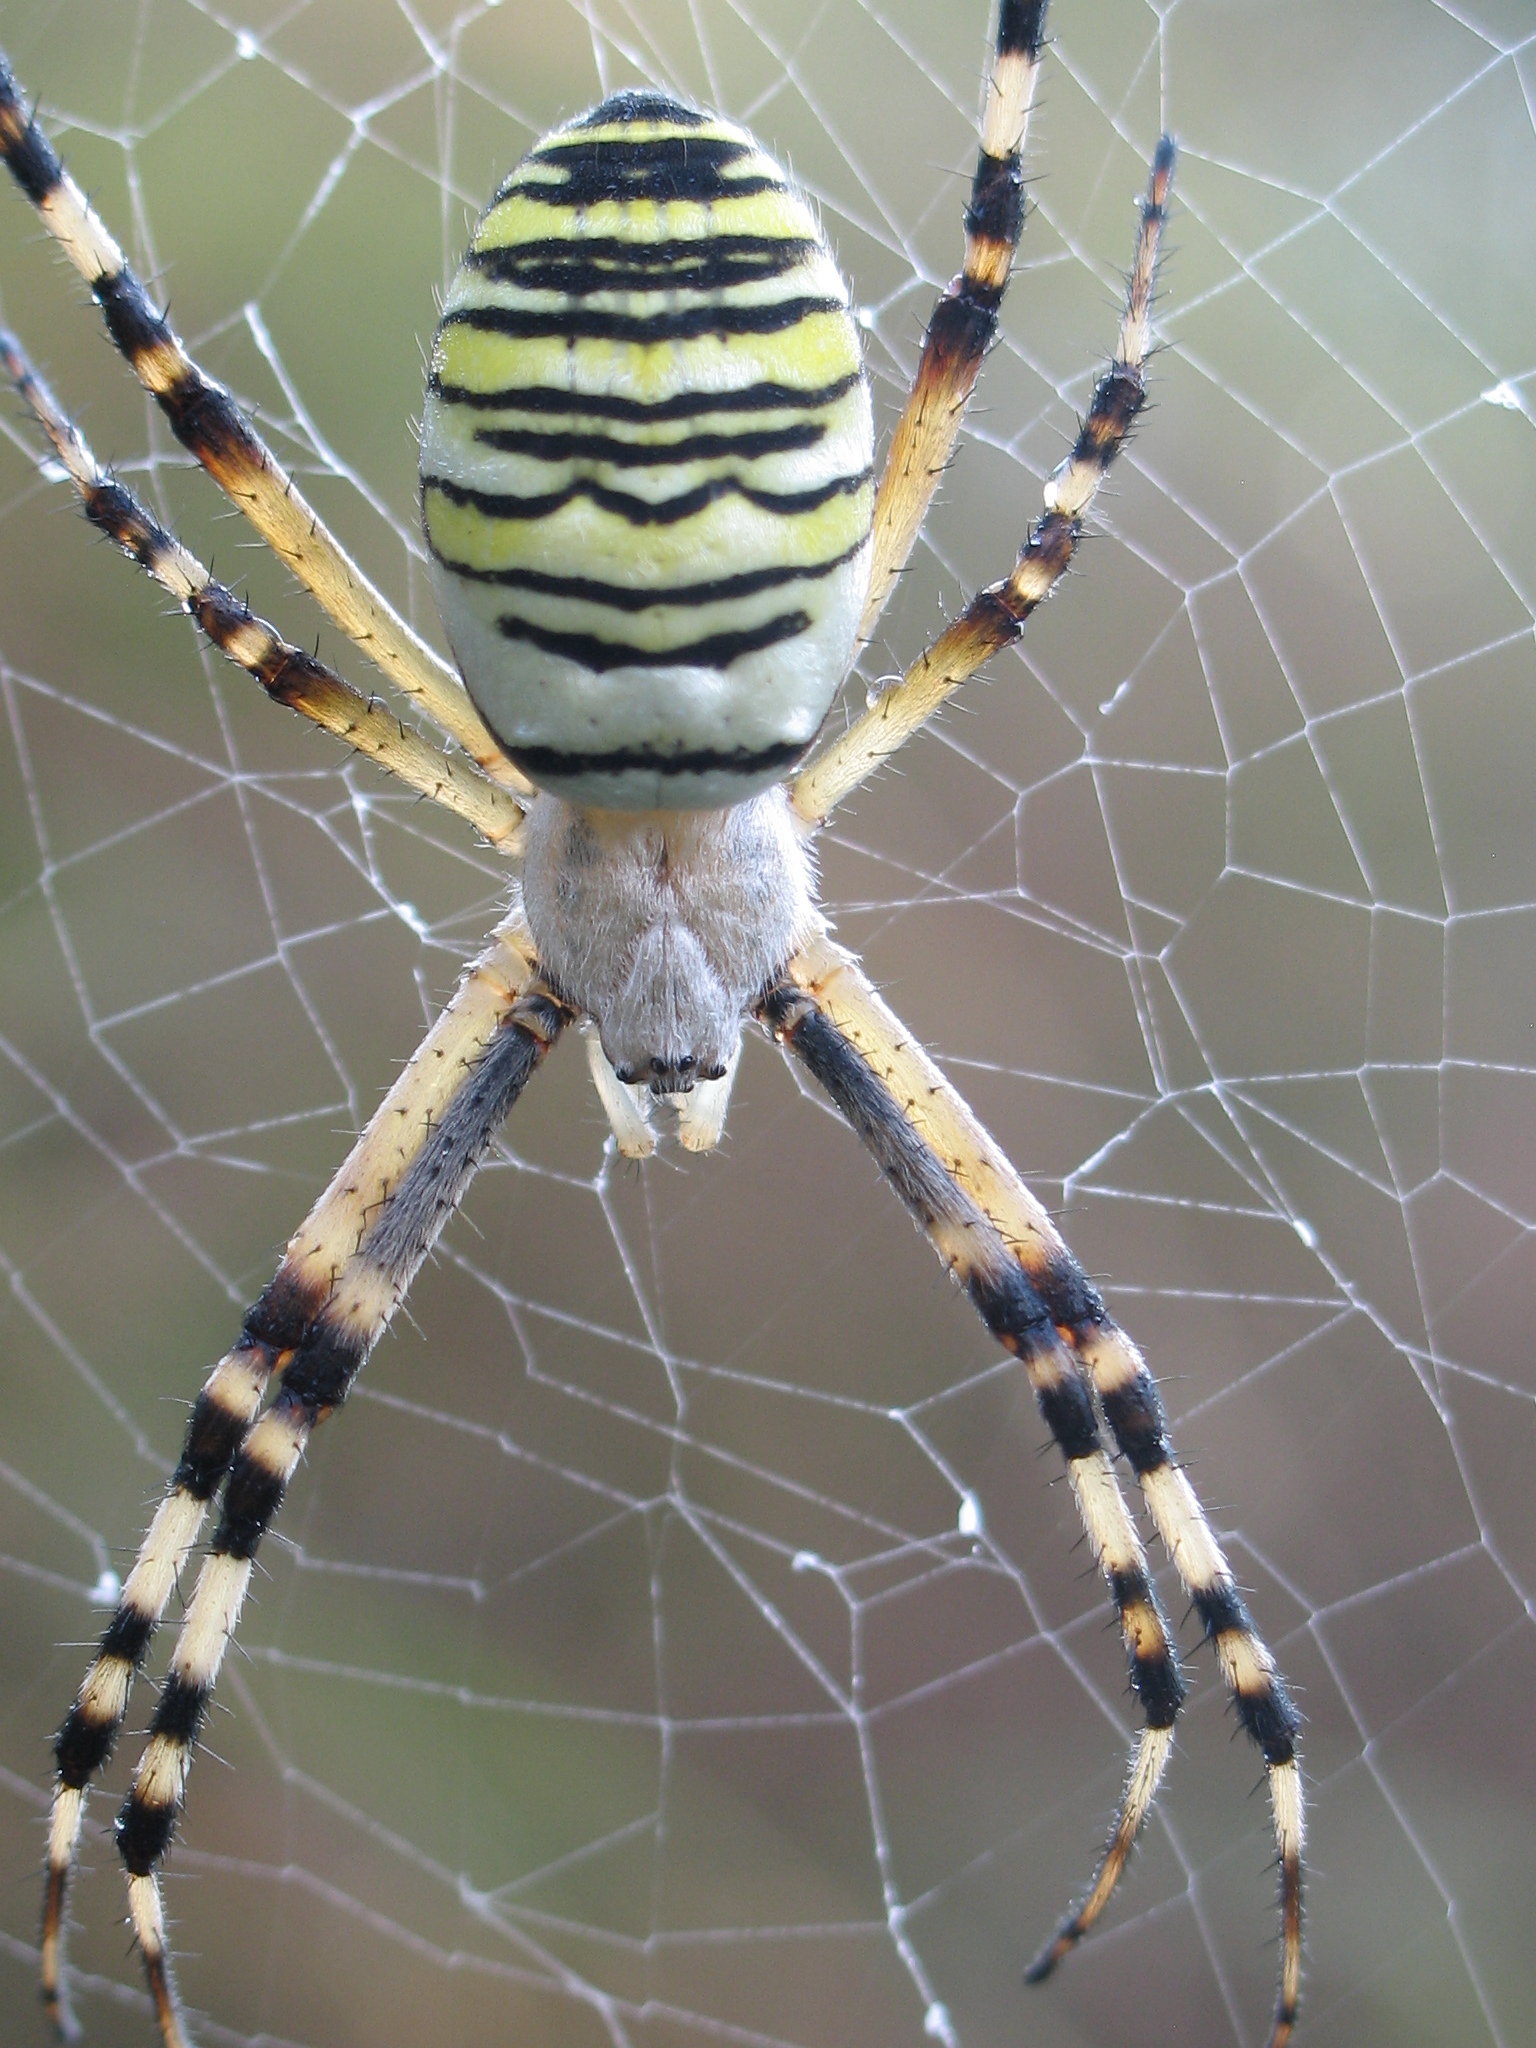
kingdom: Animalia
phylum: Arthropoda
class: Arachnida
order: Araneae
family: Araneidae
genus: Argiope
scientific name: Argiope bruennichi
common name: Wasp spider
